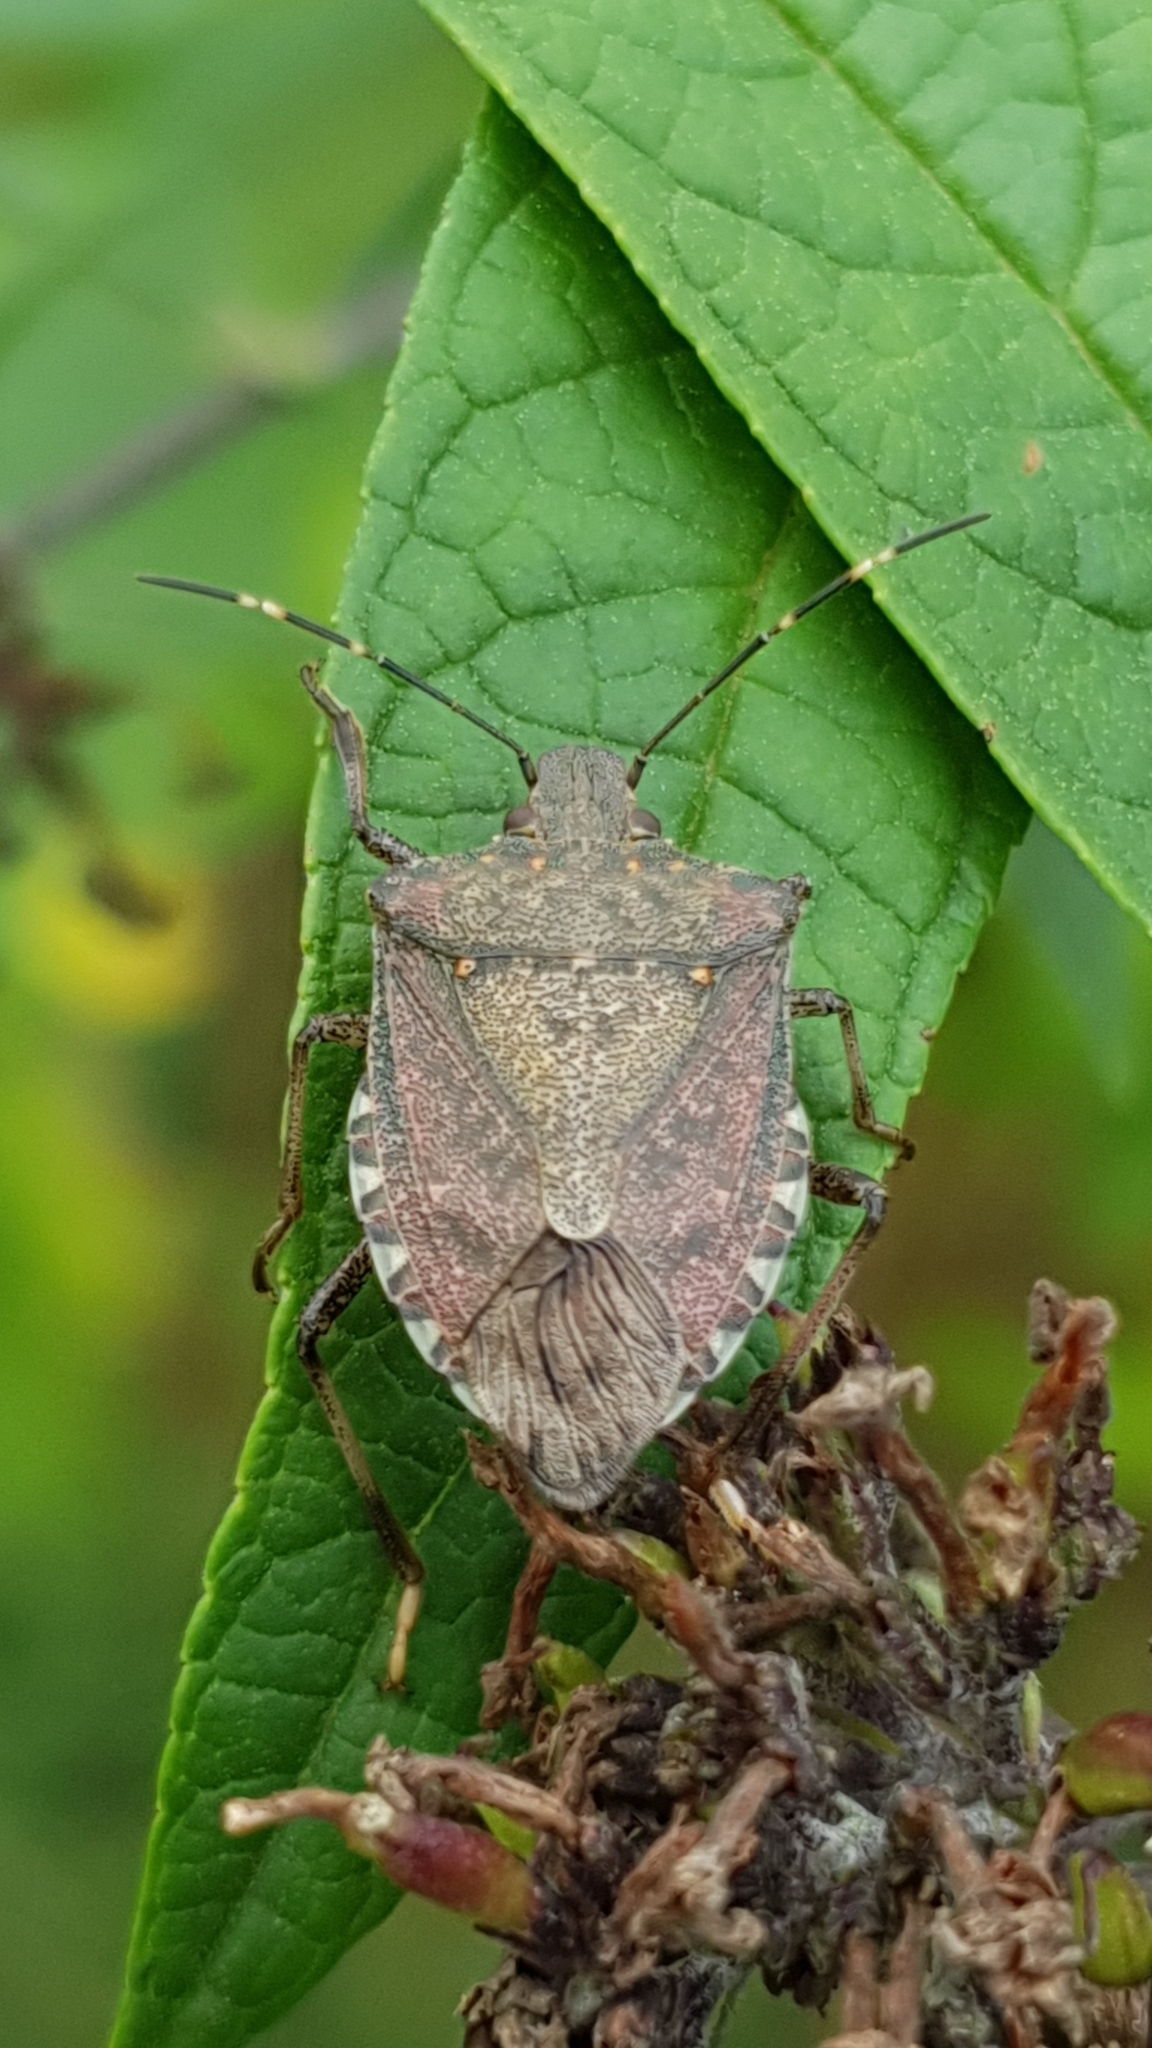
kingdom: Animalia
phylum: Arthropoda
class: Insecta
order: Hemiptera
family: Pentatomidae
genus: Halyomorpha
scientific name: Halyomorpha halys
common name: Brown marmorated stink bug
